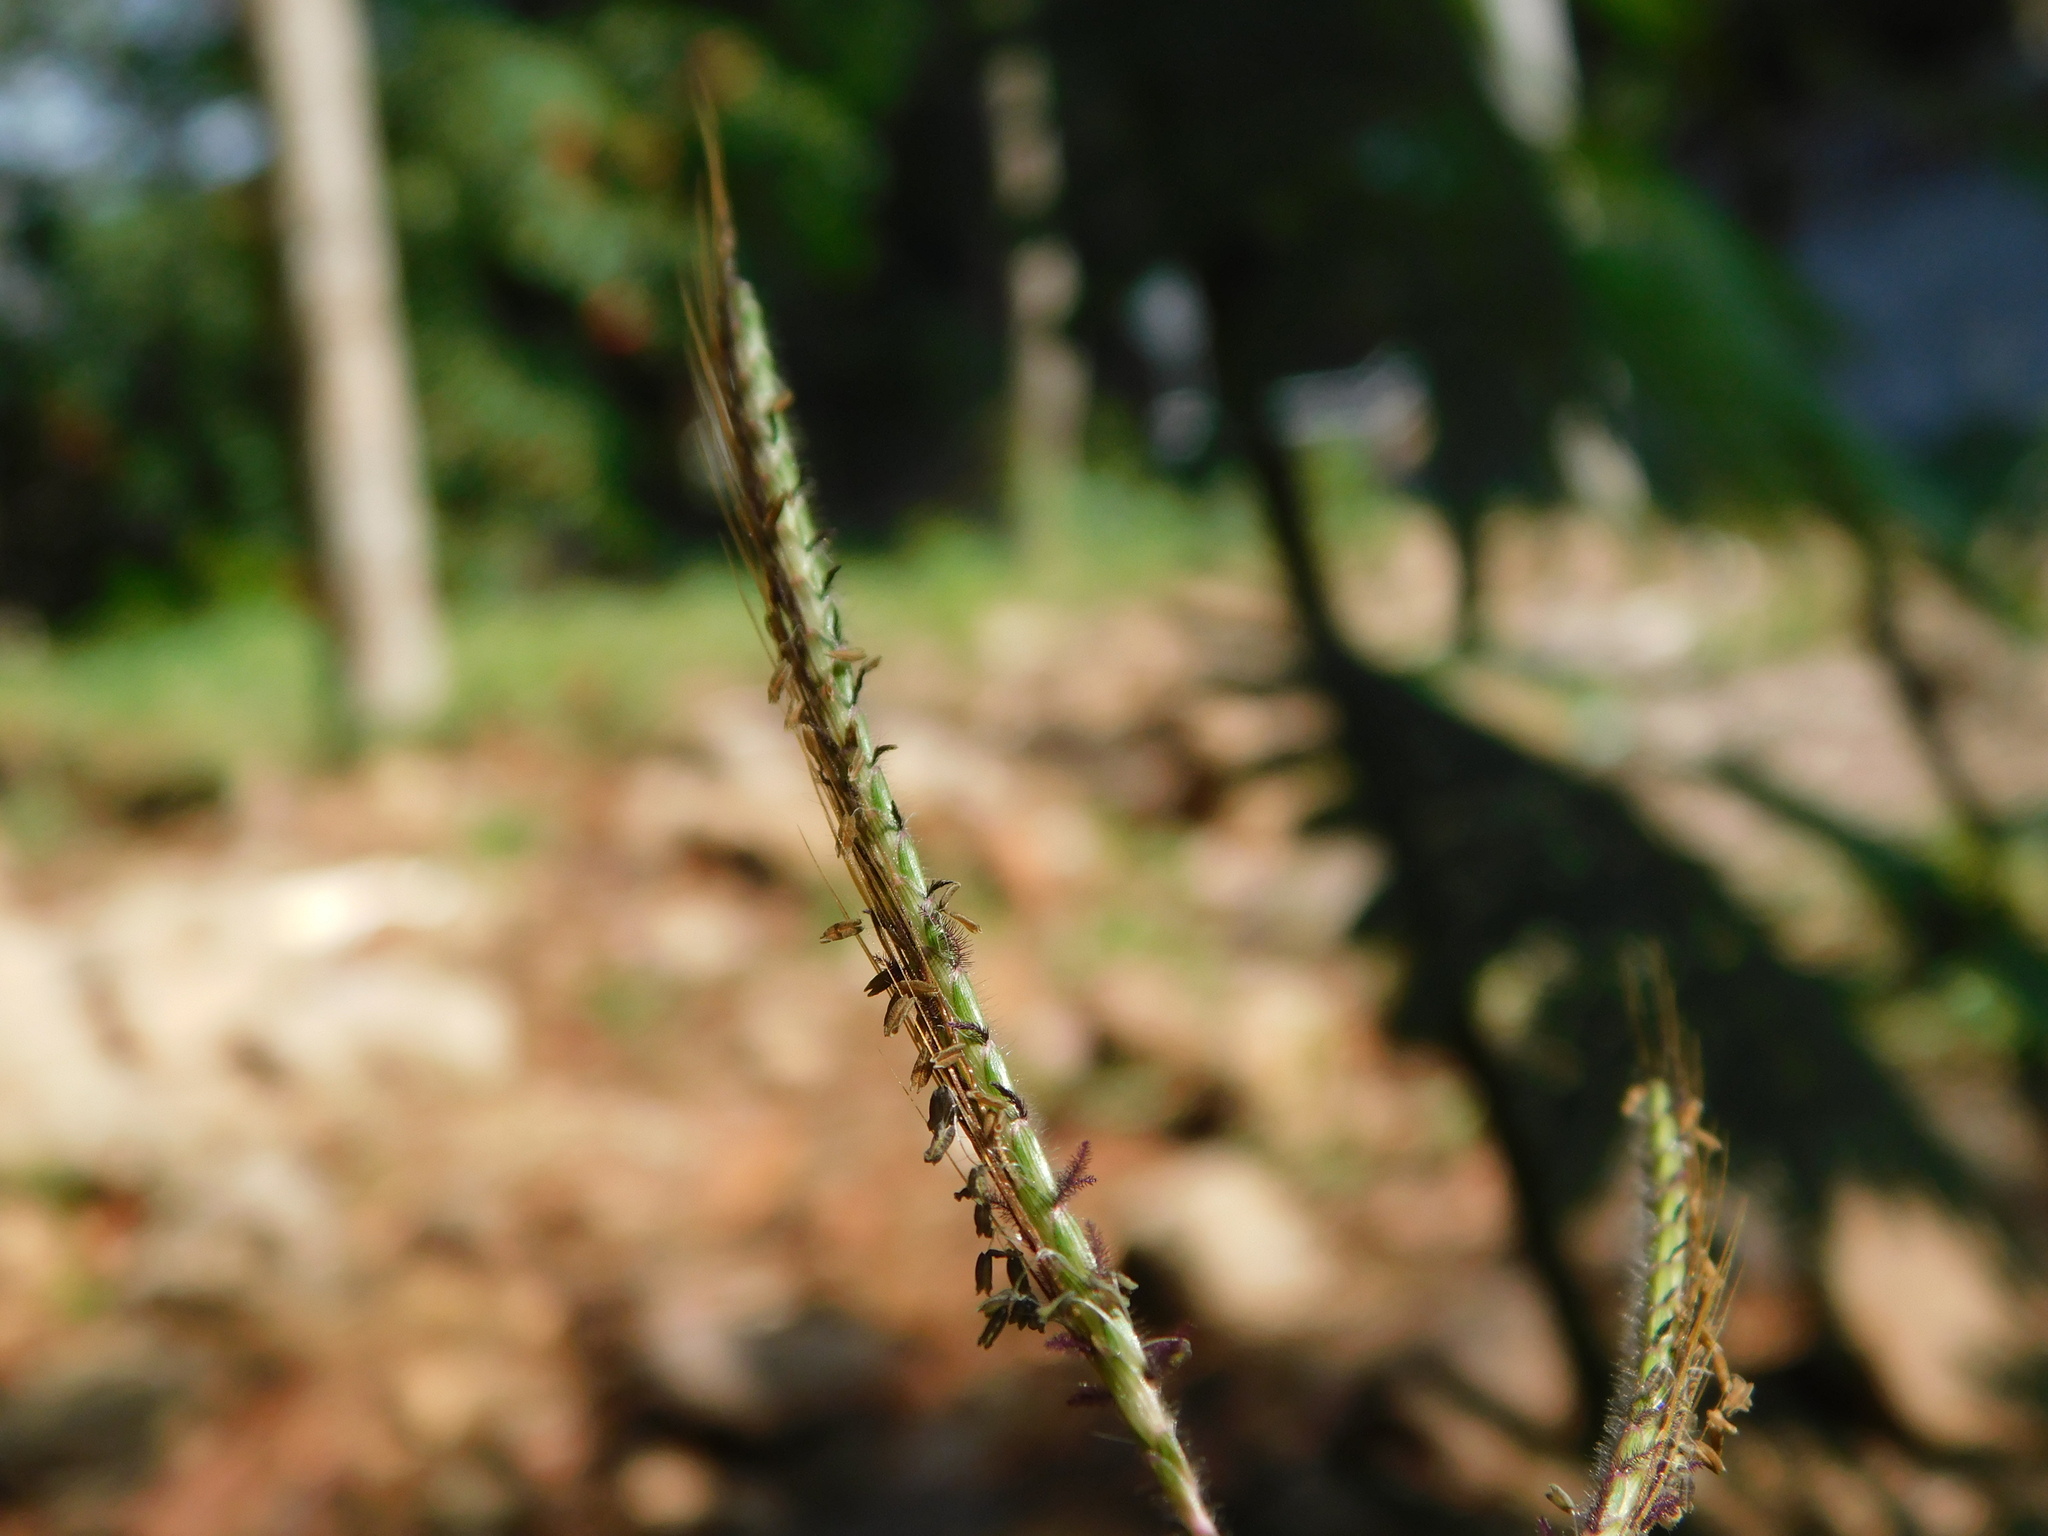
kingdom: Plantae
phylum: Tracheophyta
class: Liliopsida
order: Poales
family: Poaceae
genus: Dichanthium
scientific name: Dichanthium caricosum
